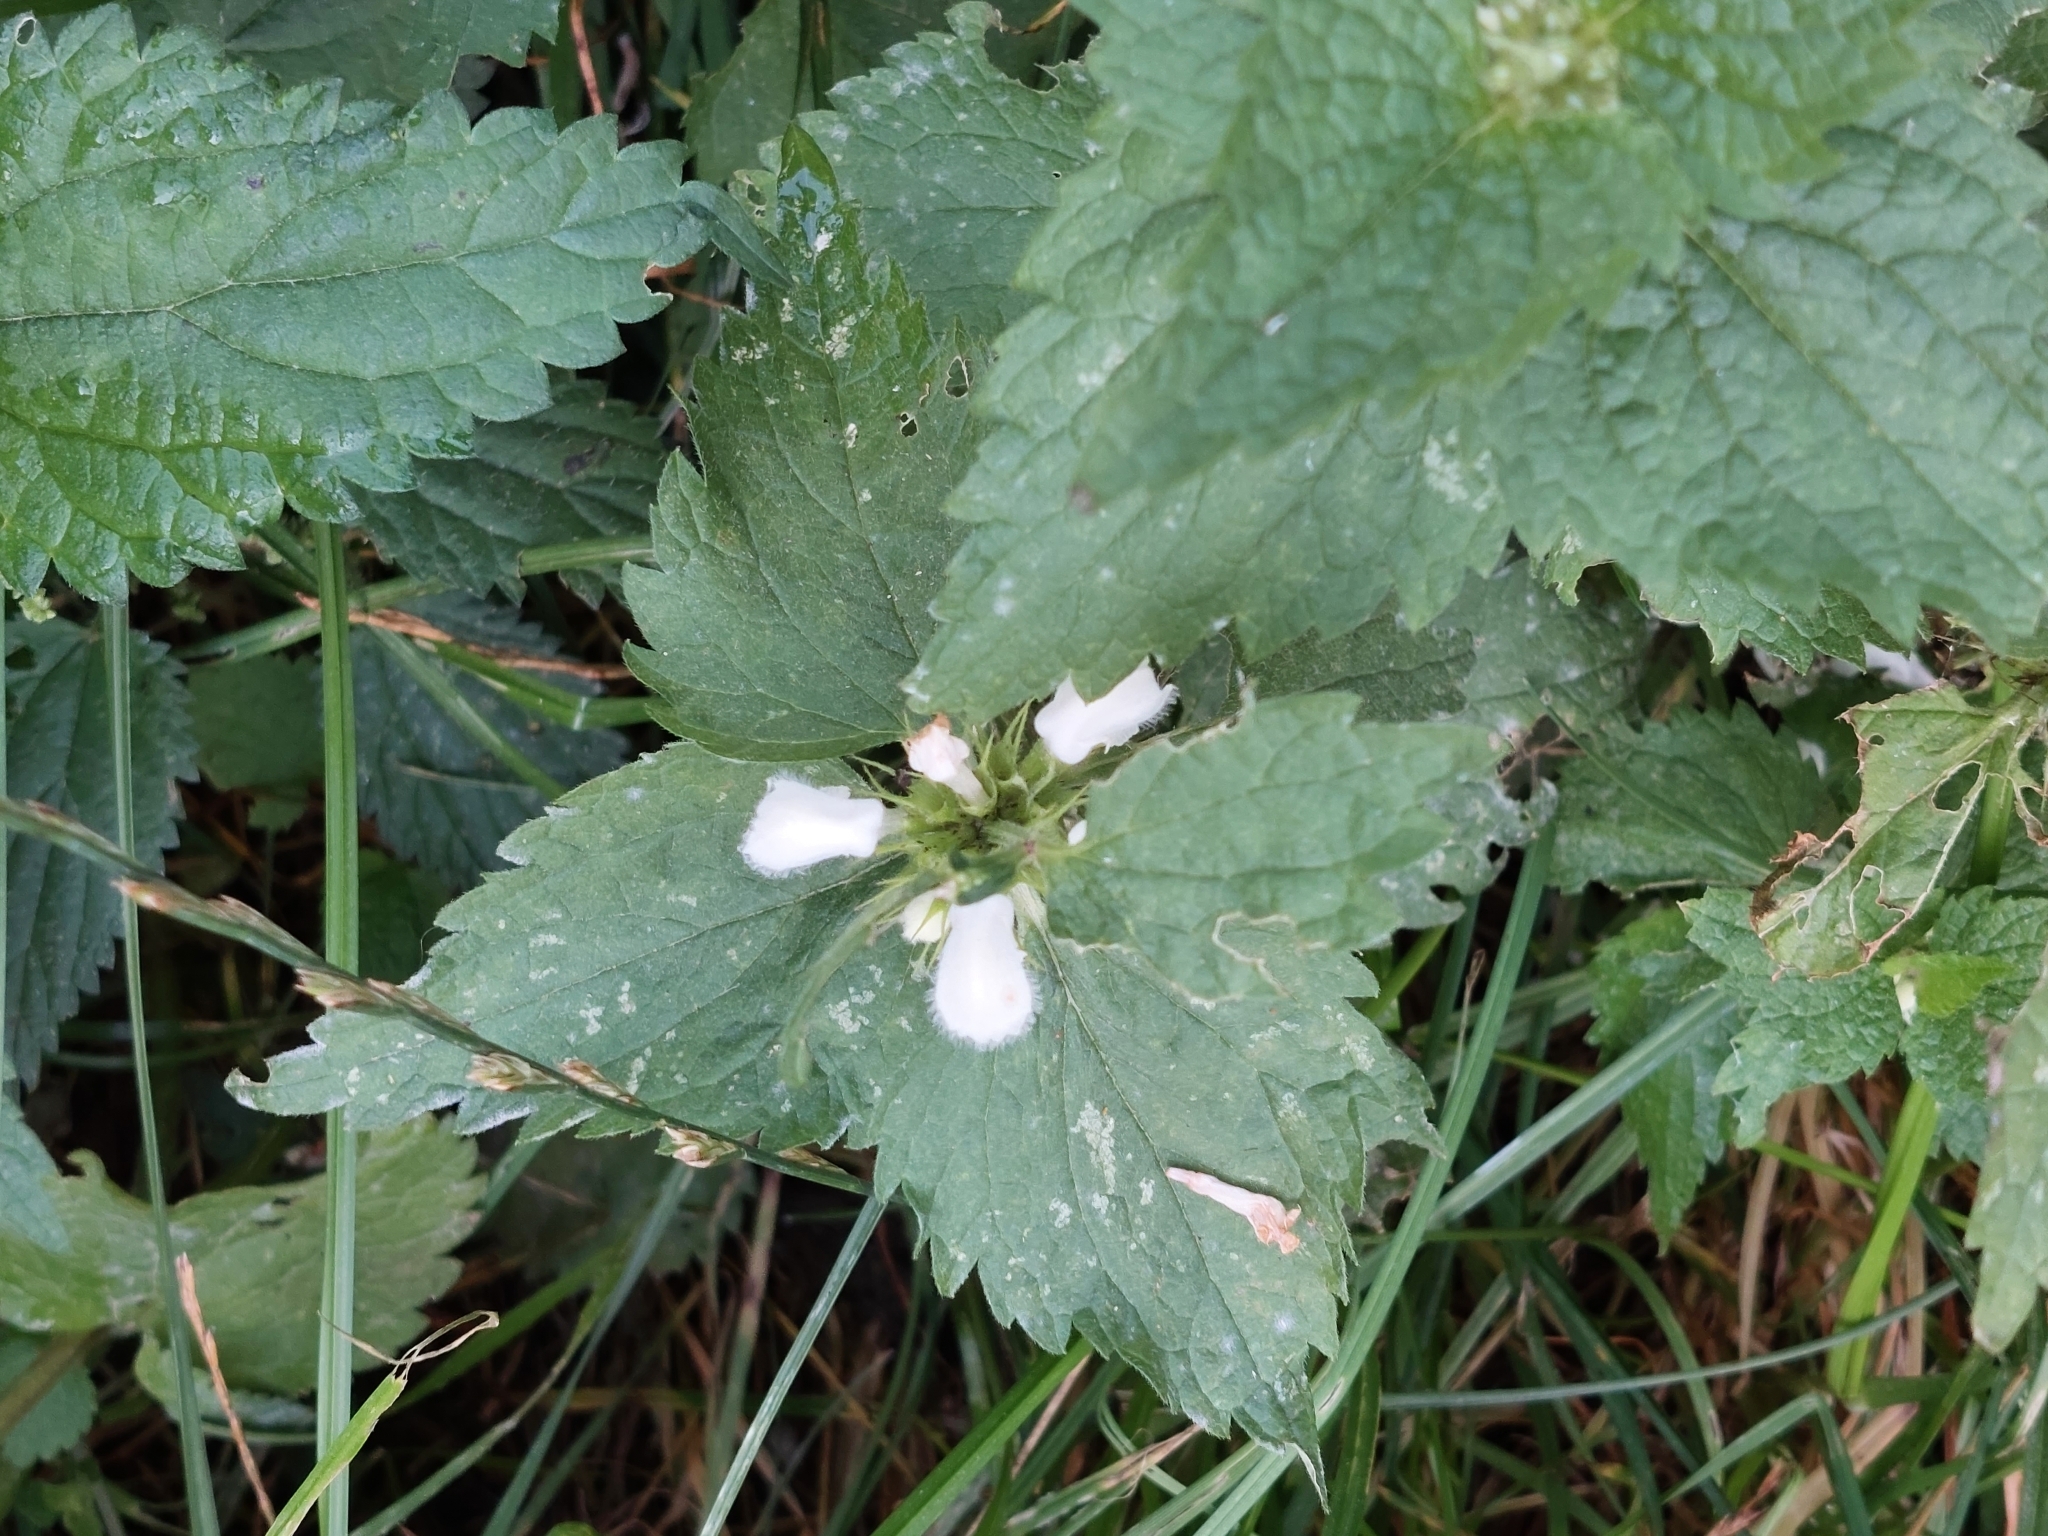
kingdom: Plantae
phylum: Tracheophyta
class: Magnoliopsida
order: Lamiales
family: Lamiaceae
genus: Lamium
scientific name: Lamium album
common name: White dead-nettle
